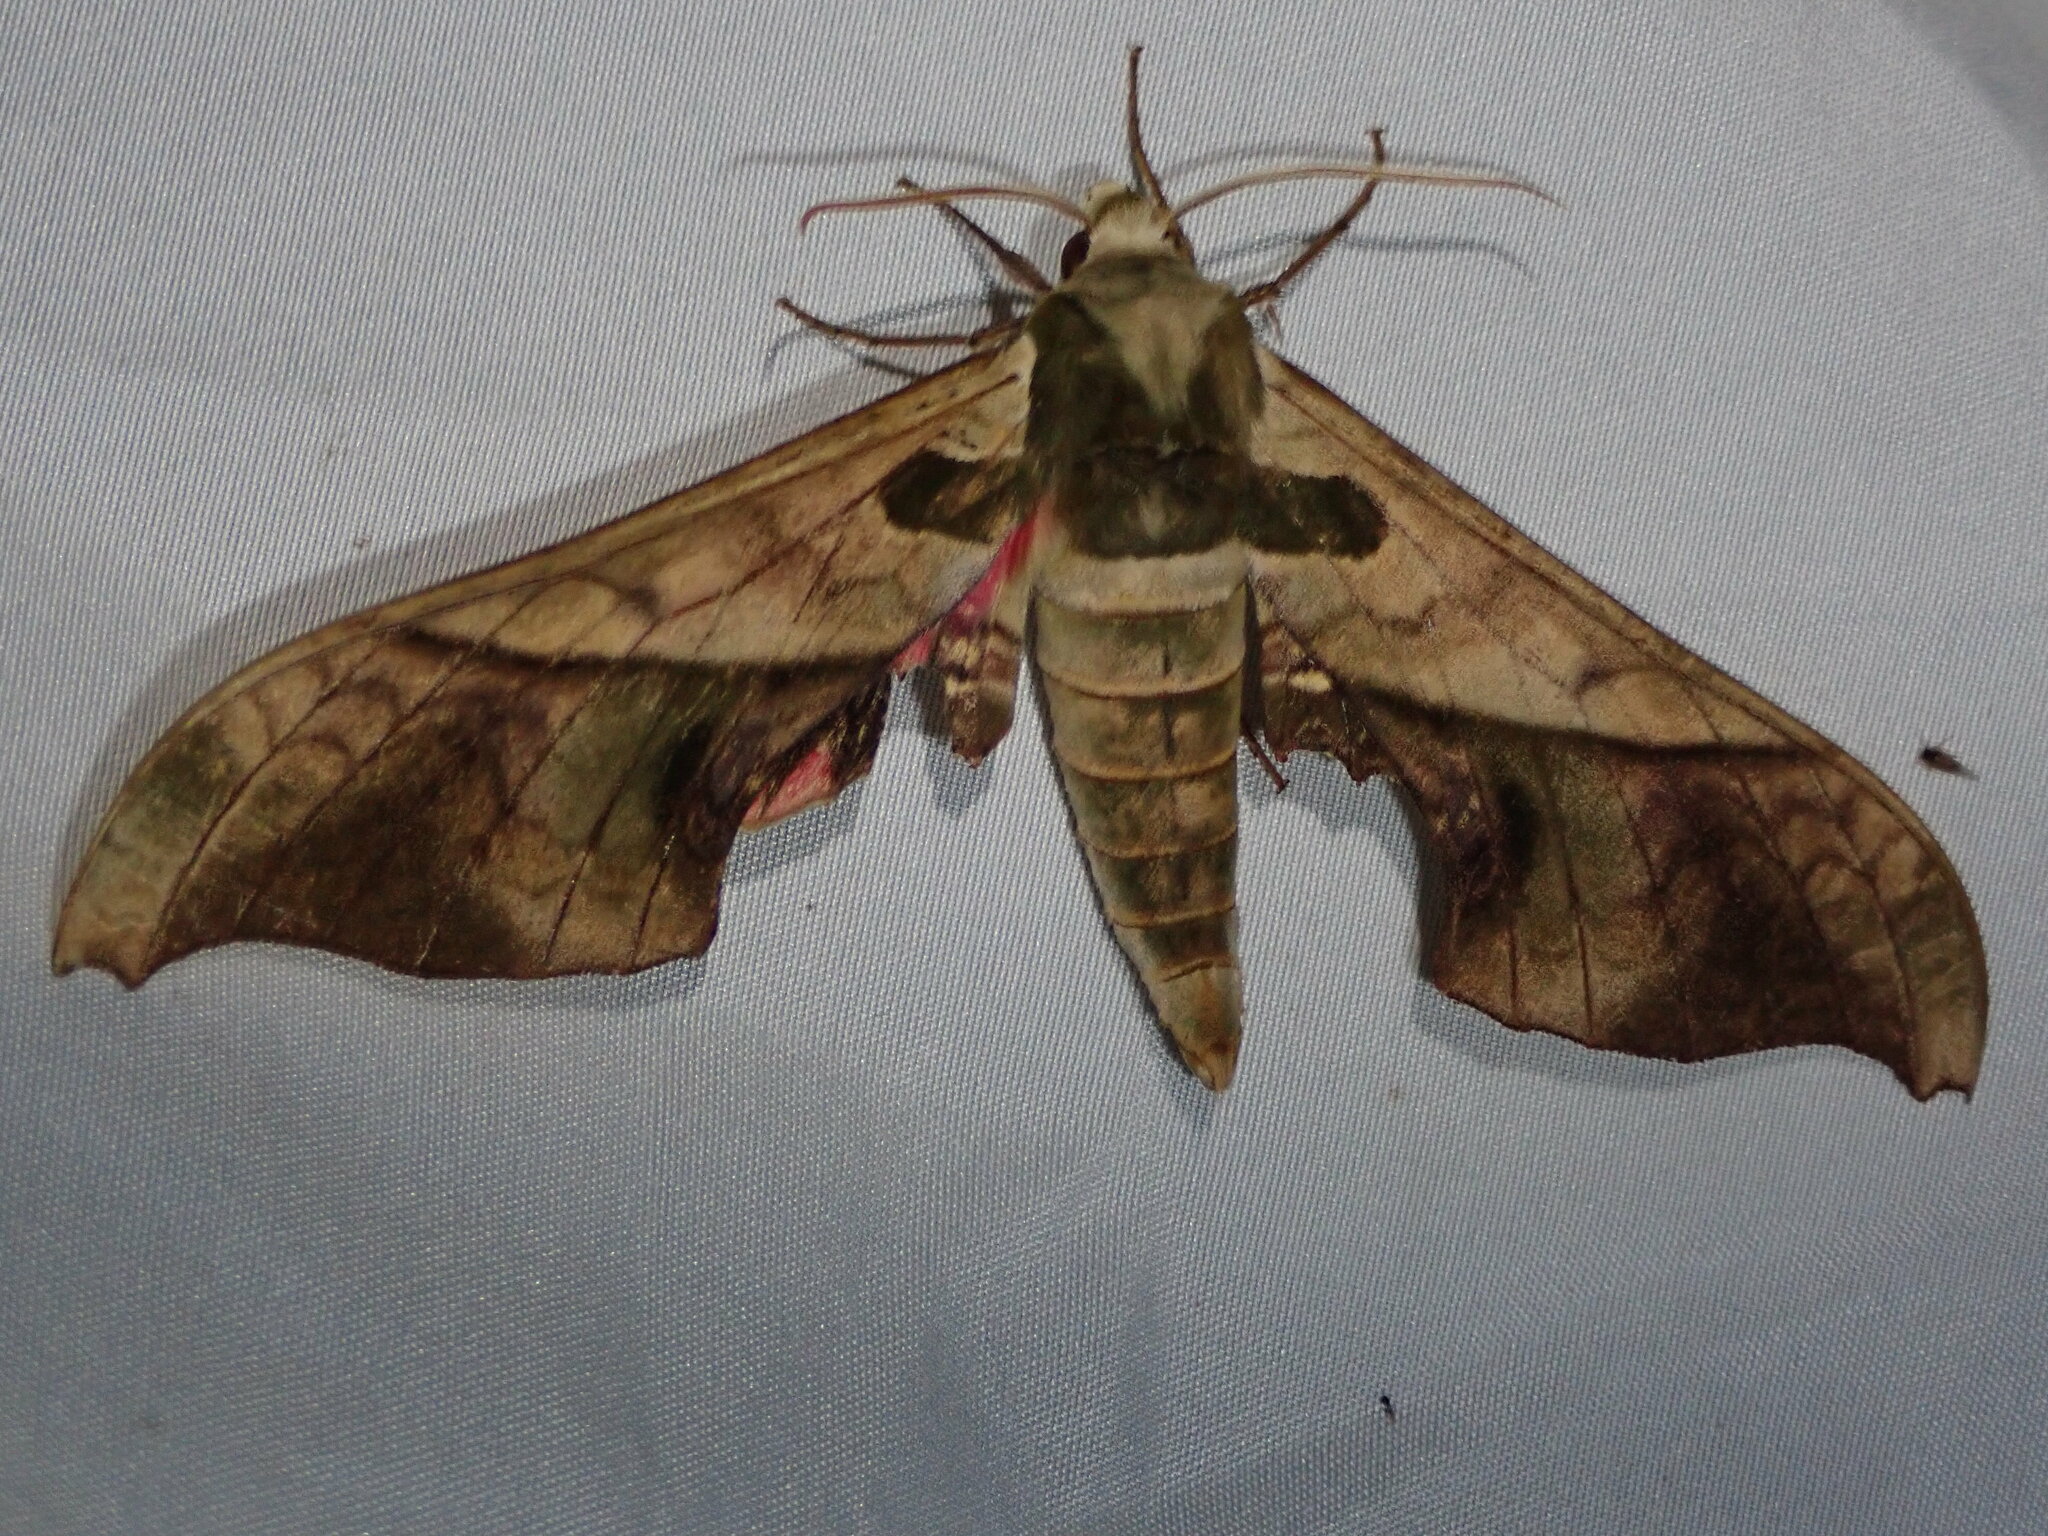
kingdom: Animalia
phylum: Arthropoda
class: Insecta
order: Lepidoptera
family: Sphingidae
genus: Adhemarius
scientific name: Adhemarius dariensis
